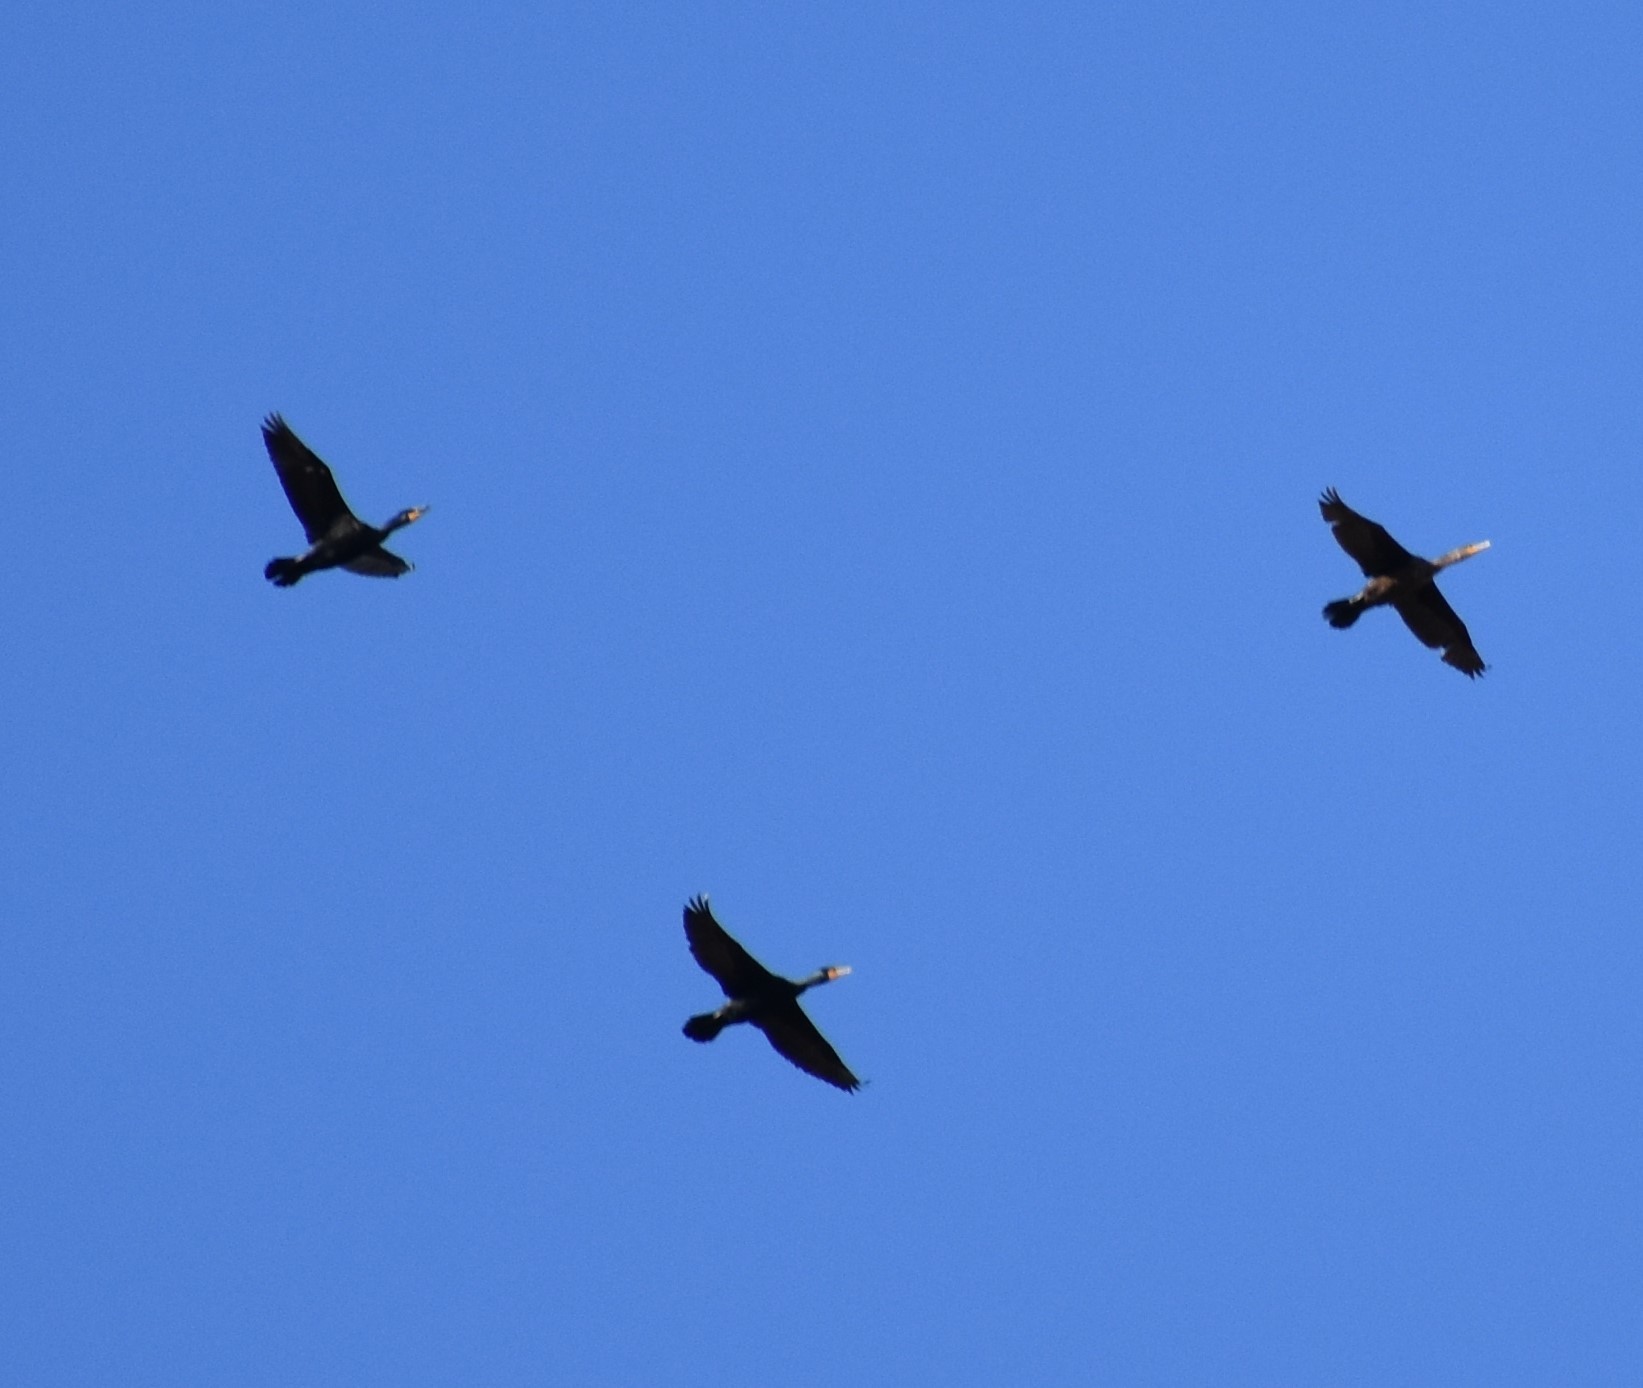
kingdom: Animalia
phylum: Chordata
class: Aves
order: Suliformes
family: Phalacrocoracidae
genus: Phalacrocorax
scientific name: Phalacrocorax auritus
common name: Double-crested cormorant
